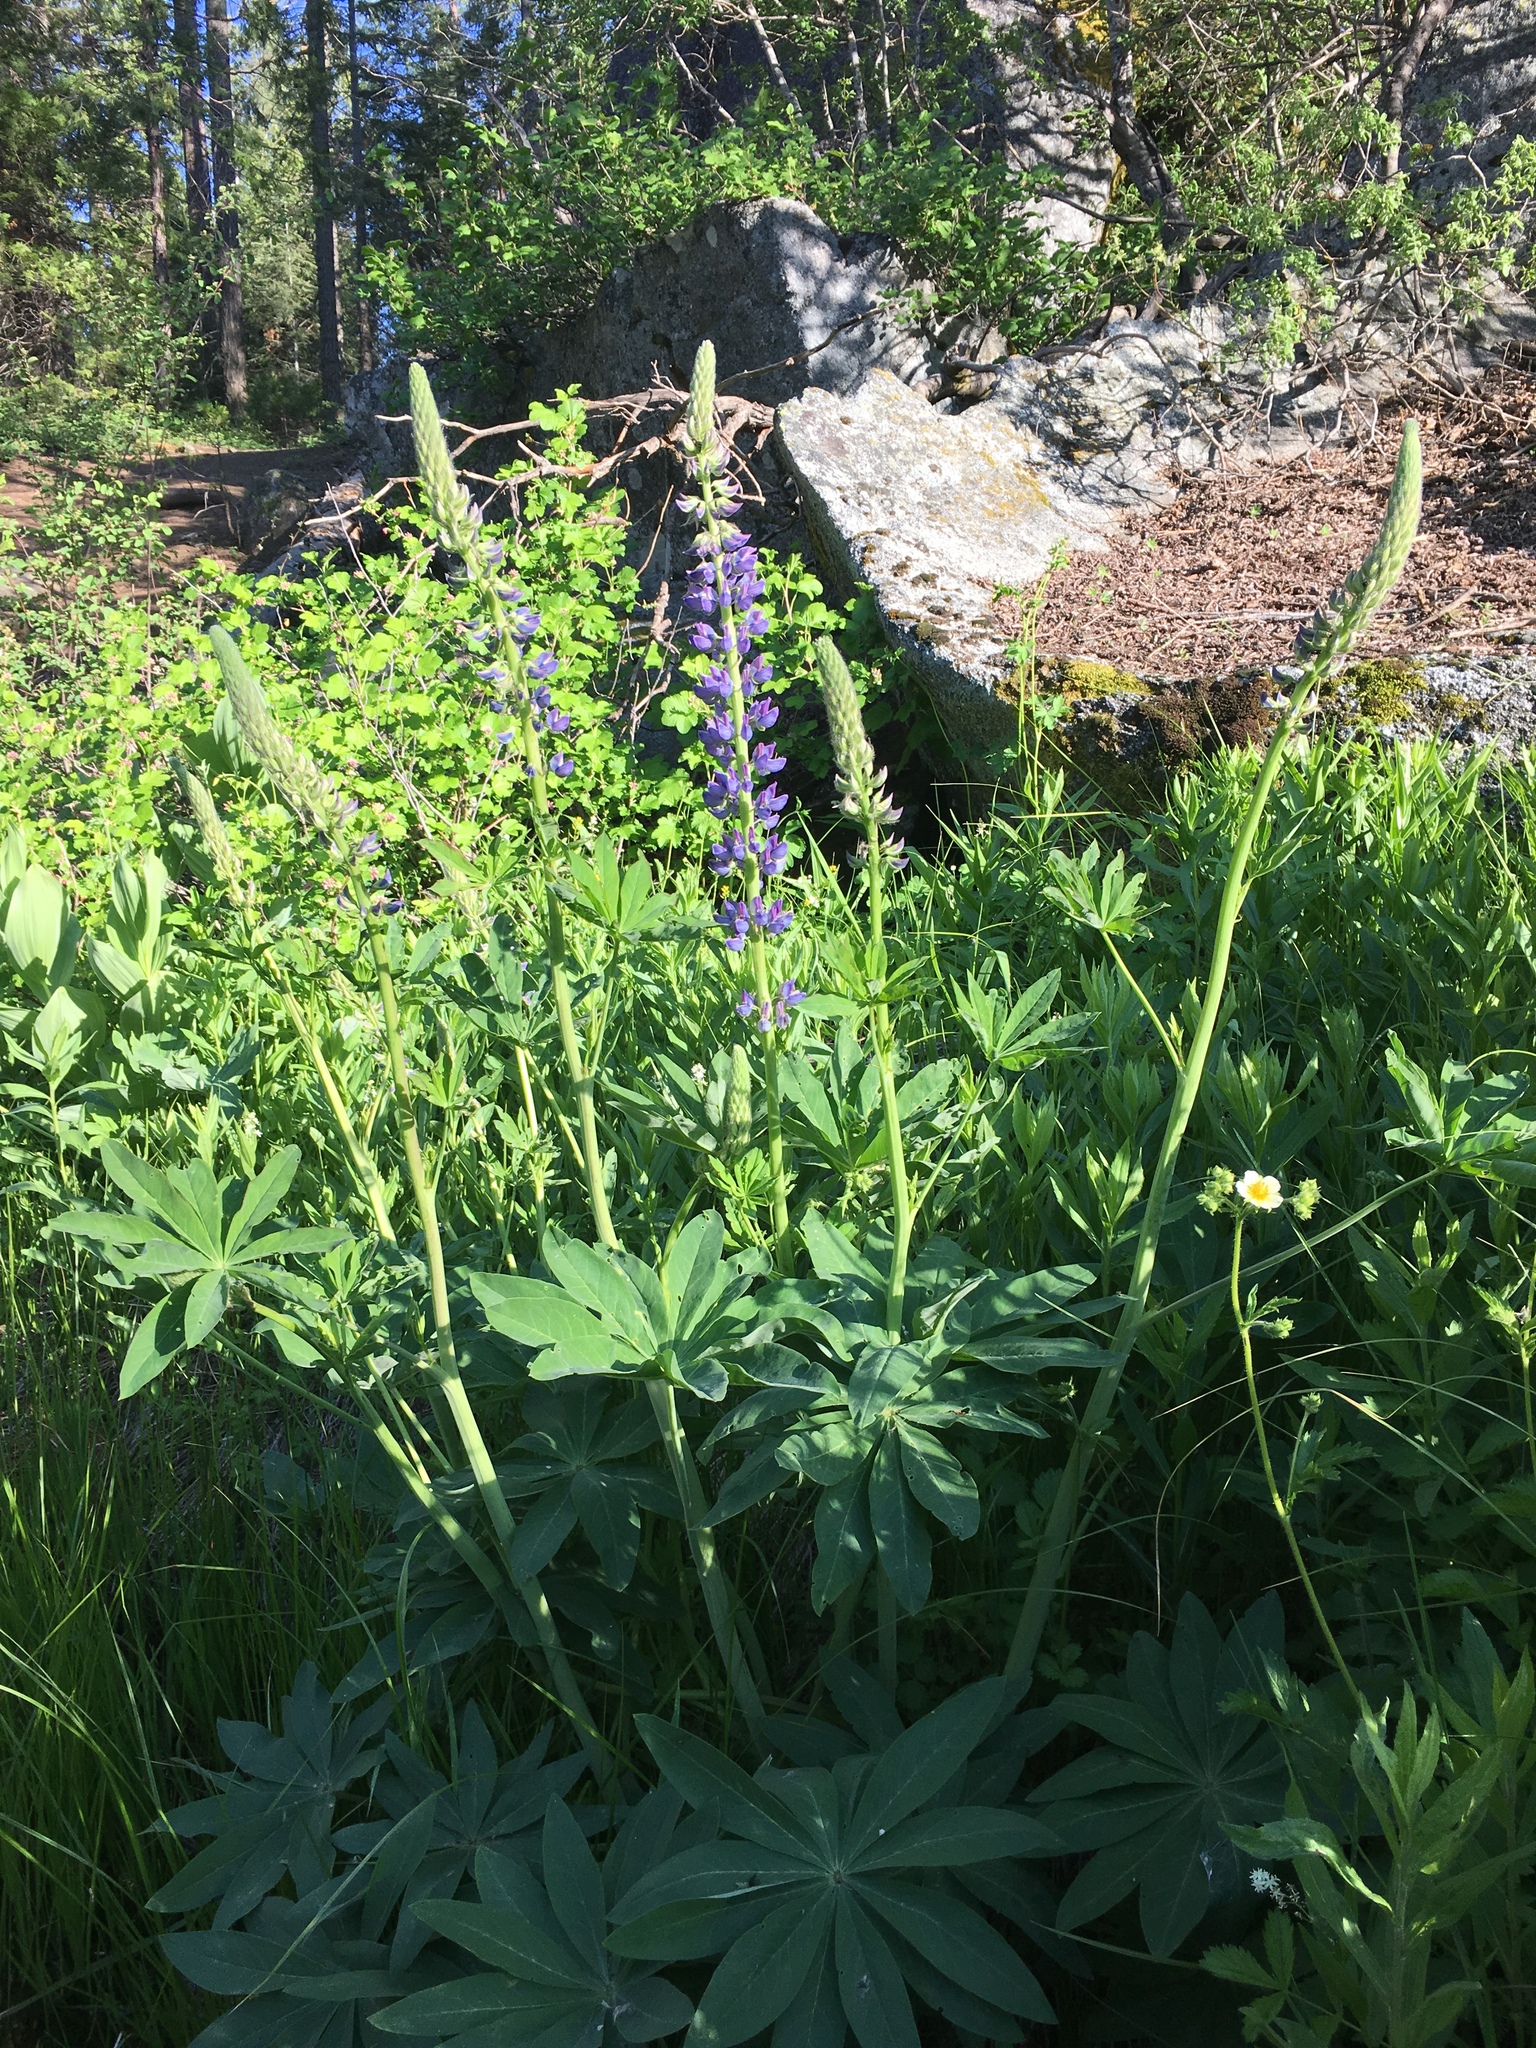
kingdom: Plantae
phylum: Tracheophyta
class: Magnoliopsida
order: Fabales
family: Fabaceae
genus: Lupinus
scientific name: Lupinus polyphyllus
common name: Garden lupin
